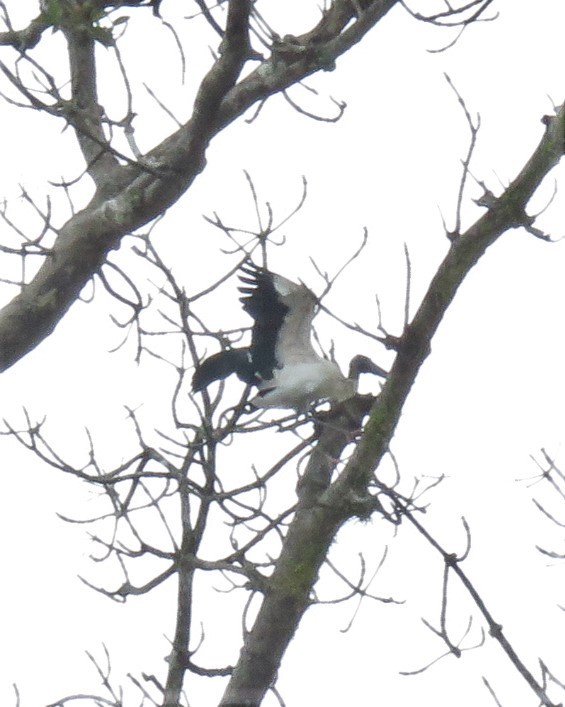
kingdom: Animalia
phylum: Chordata
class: Aves
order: Ciconiiformes
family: Ciconiidae
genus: Mycteria
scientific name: Mycteria americana
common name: Wood stork
